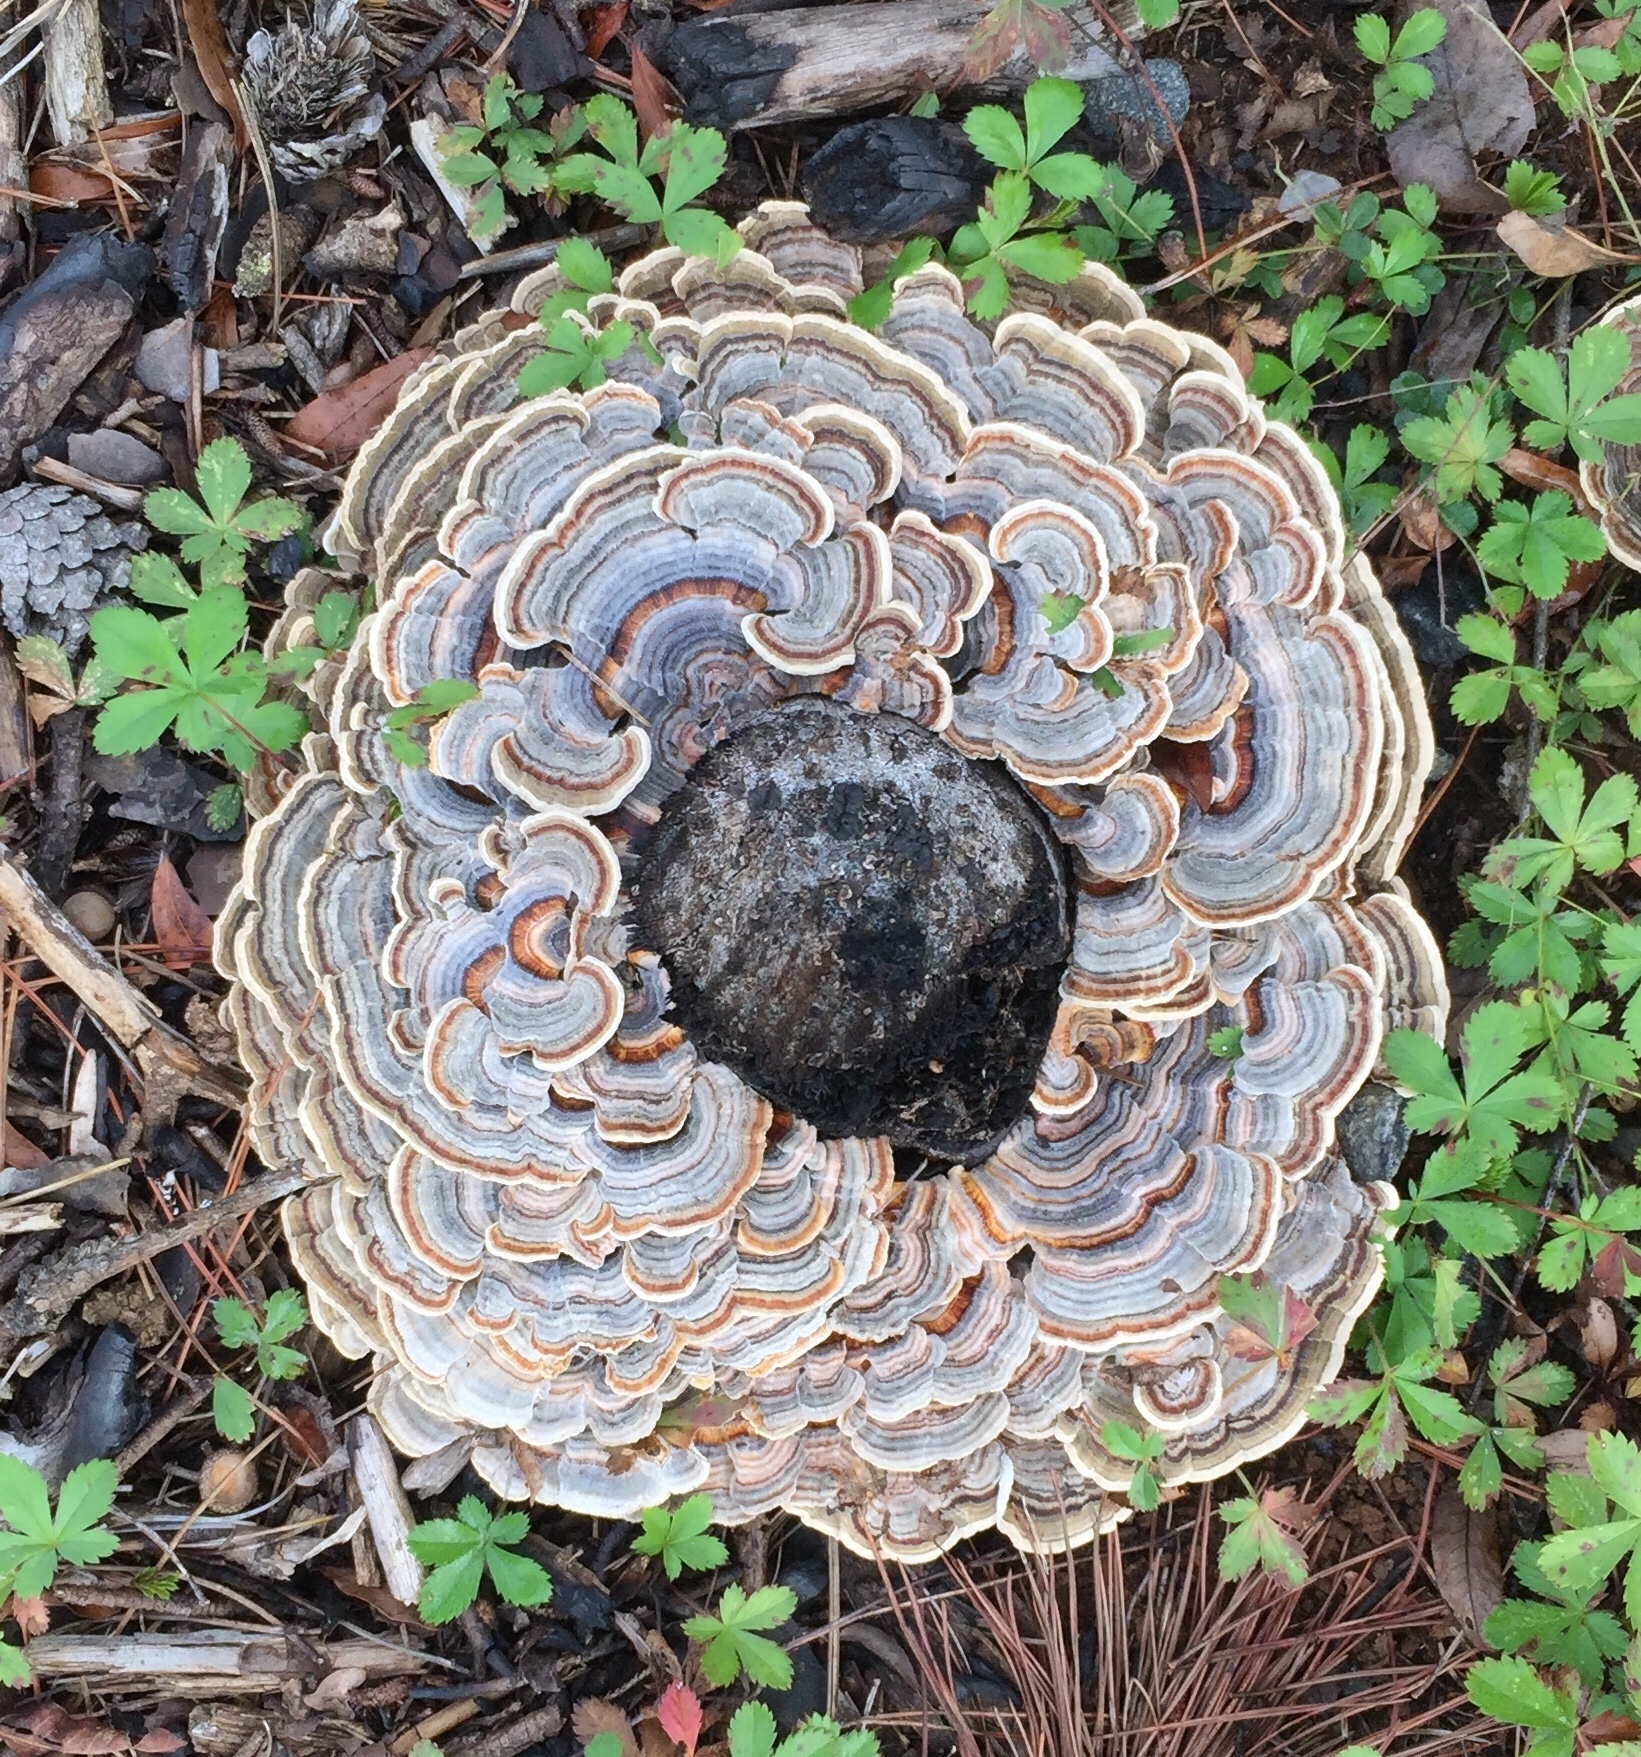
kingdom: Fungi
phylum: Basidiomycota
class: Agaricomycetes
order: Polyporales
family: Polyporaceae
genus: Trametes
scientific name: Trametes versicolor
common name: Turkeytail
